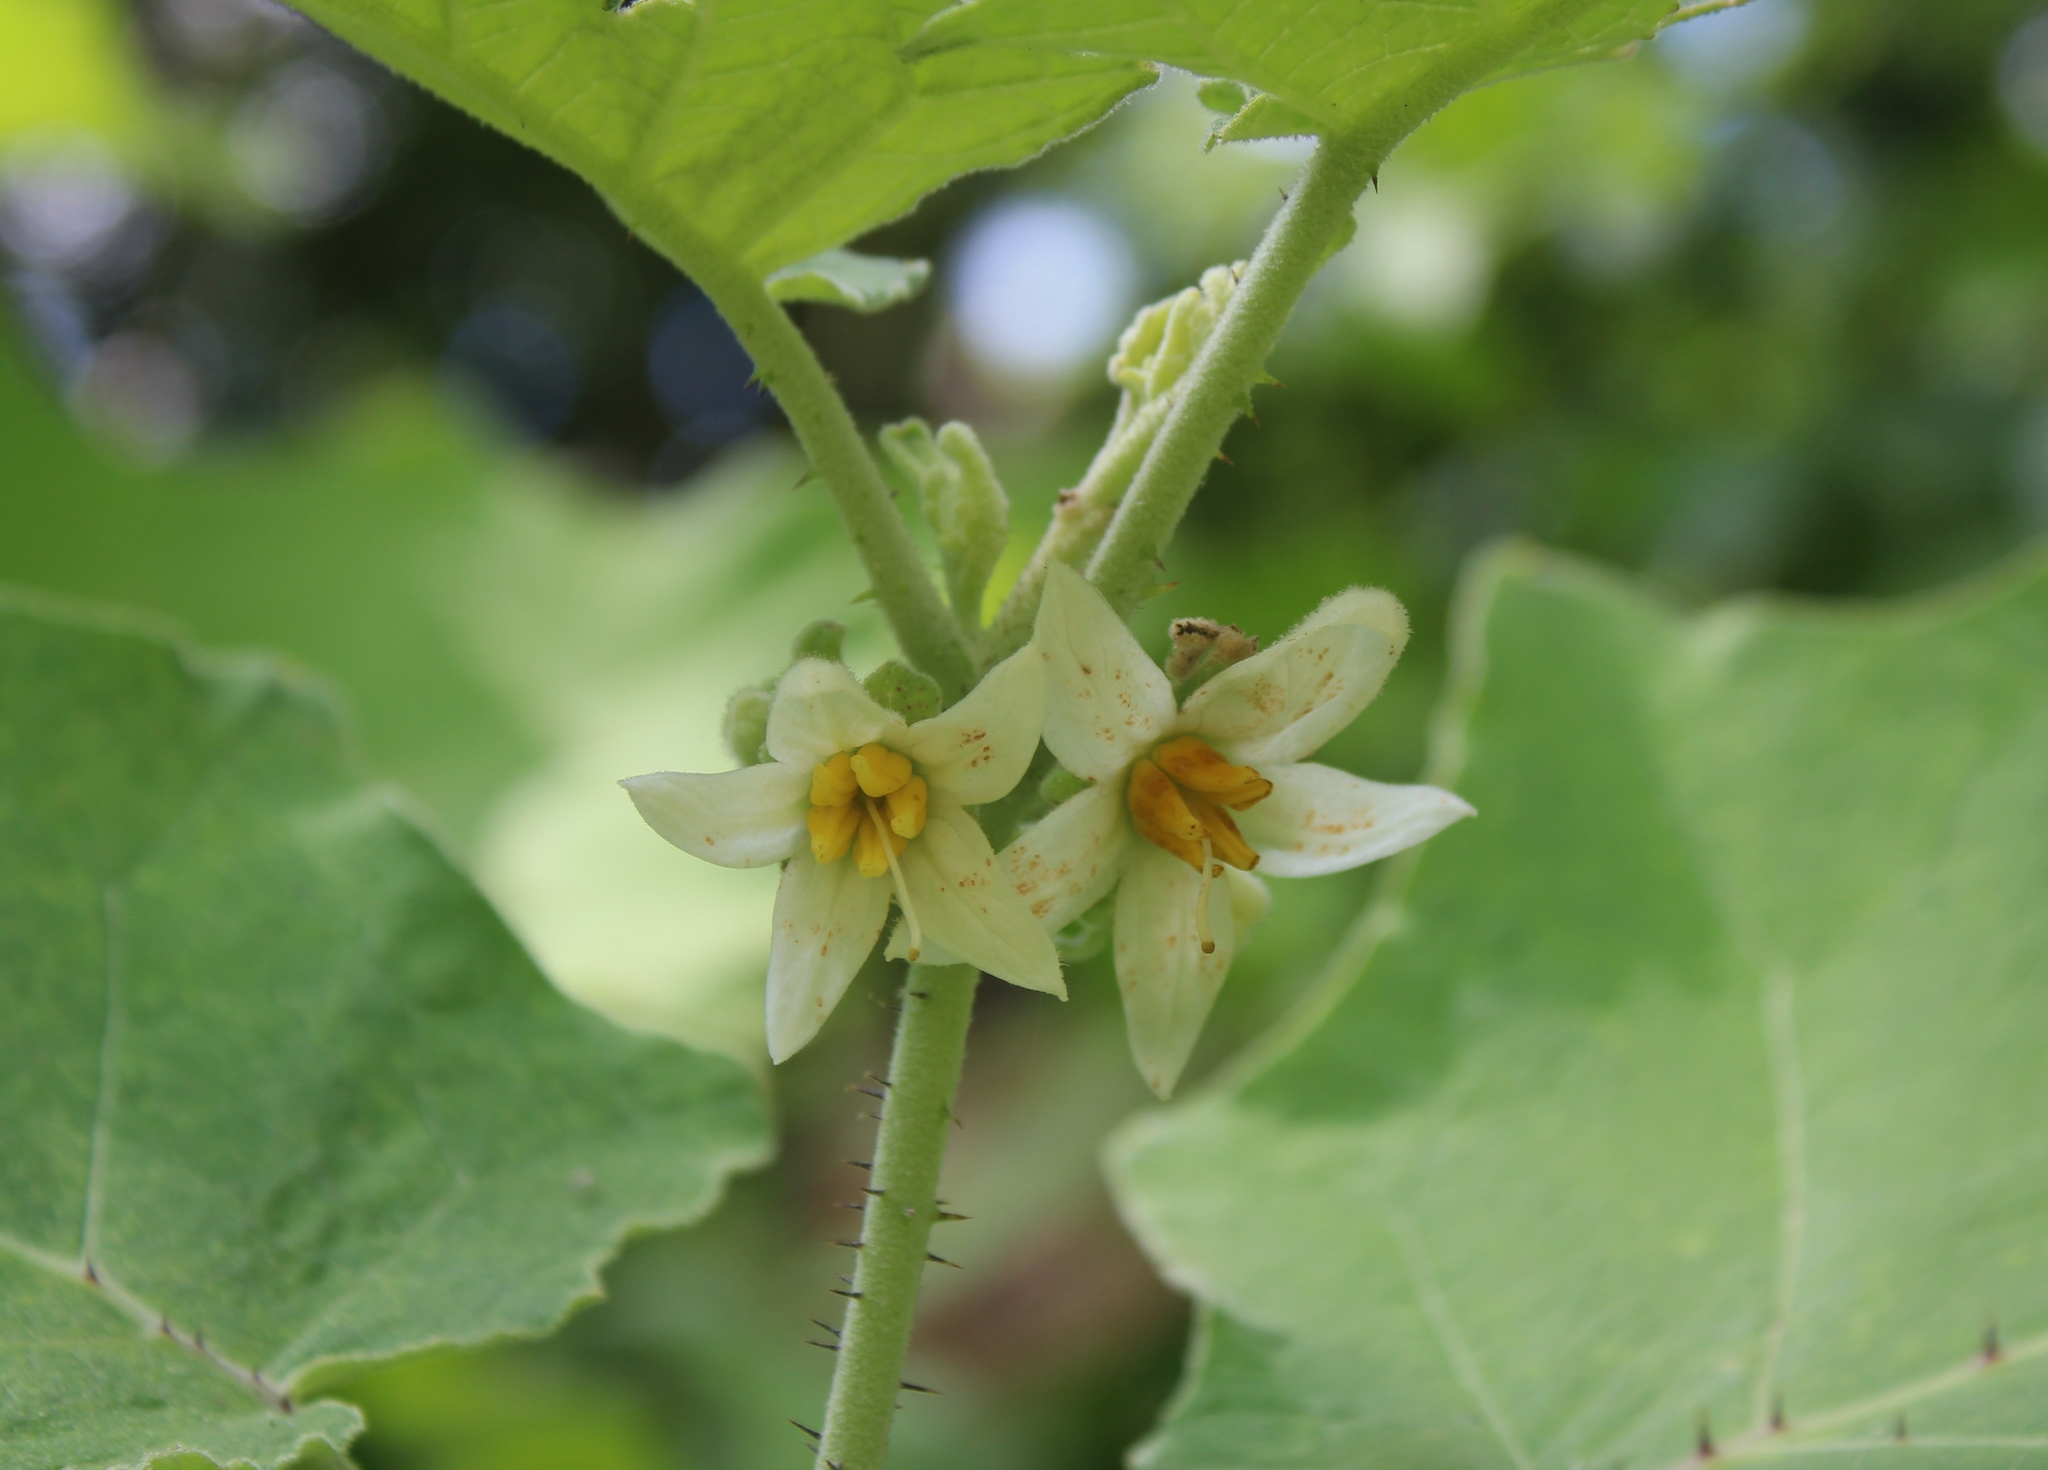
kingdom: Plantae
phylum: Tracheophyta
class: Magnoliopsida
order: Solanales
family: Solanaceae
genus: Solanum
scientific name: Solanum hirtum
